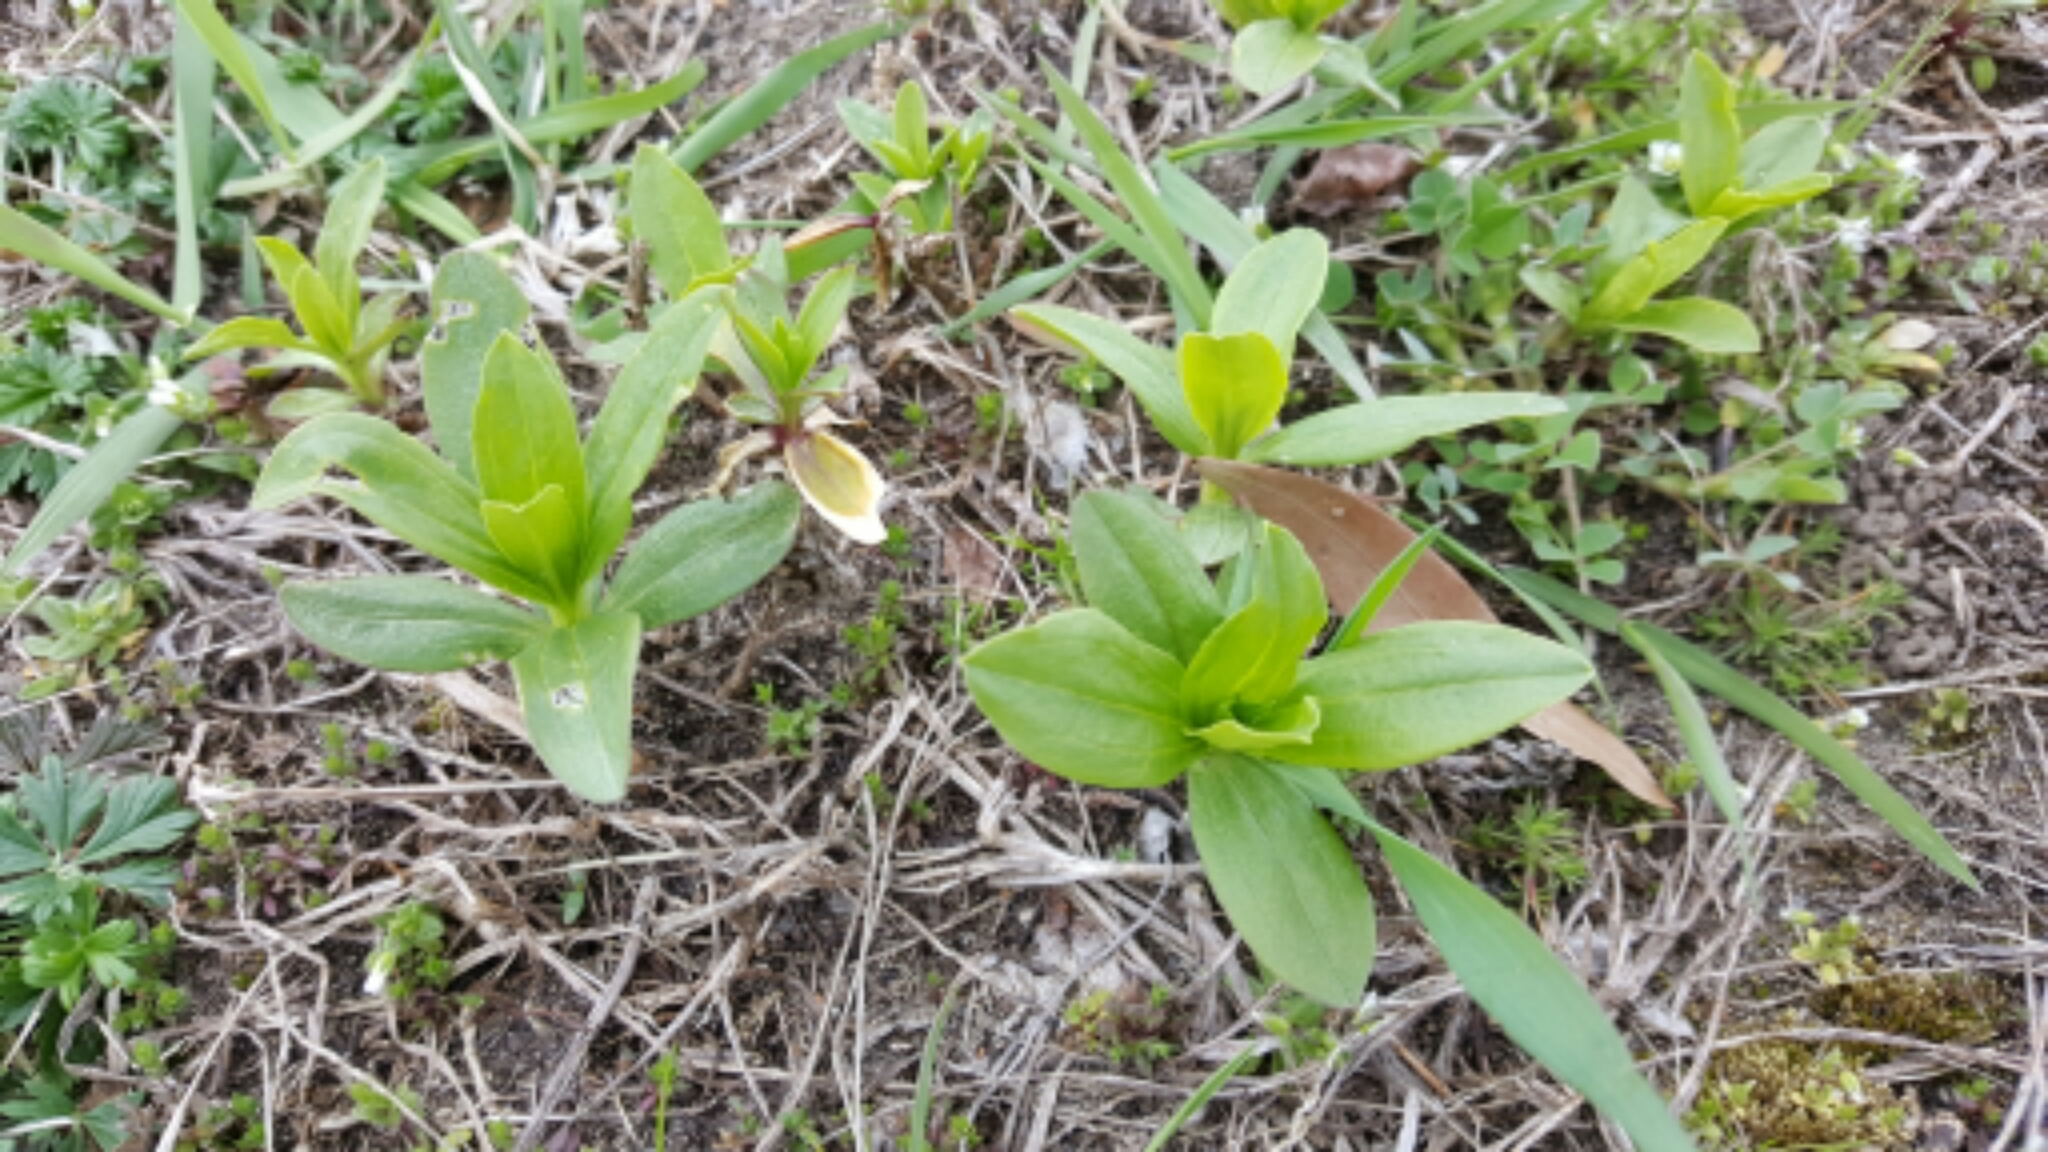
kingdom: Plantae
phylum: Tracheophyta
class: Magnoliopsida
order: Caryophyllales
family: Caryophyllaceae
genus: Saponaria
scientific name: Saponaria officinalis
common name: Soapwort
